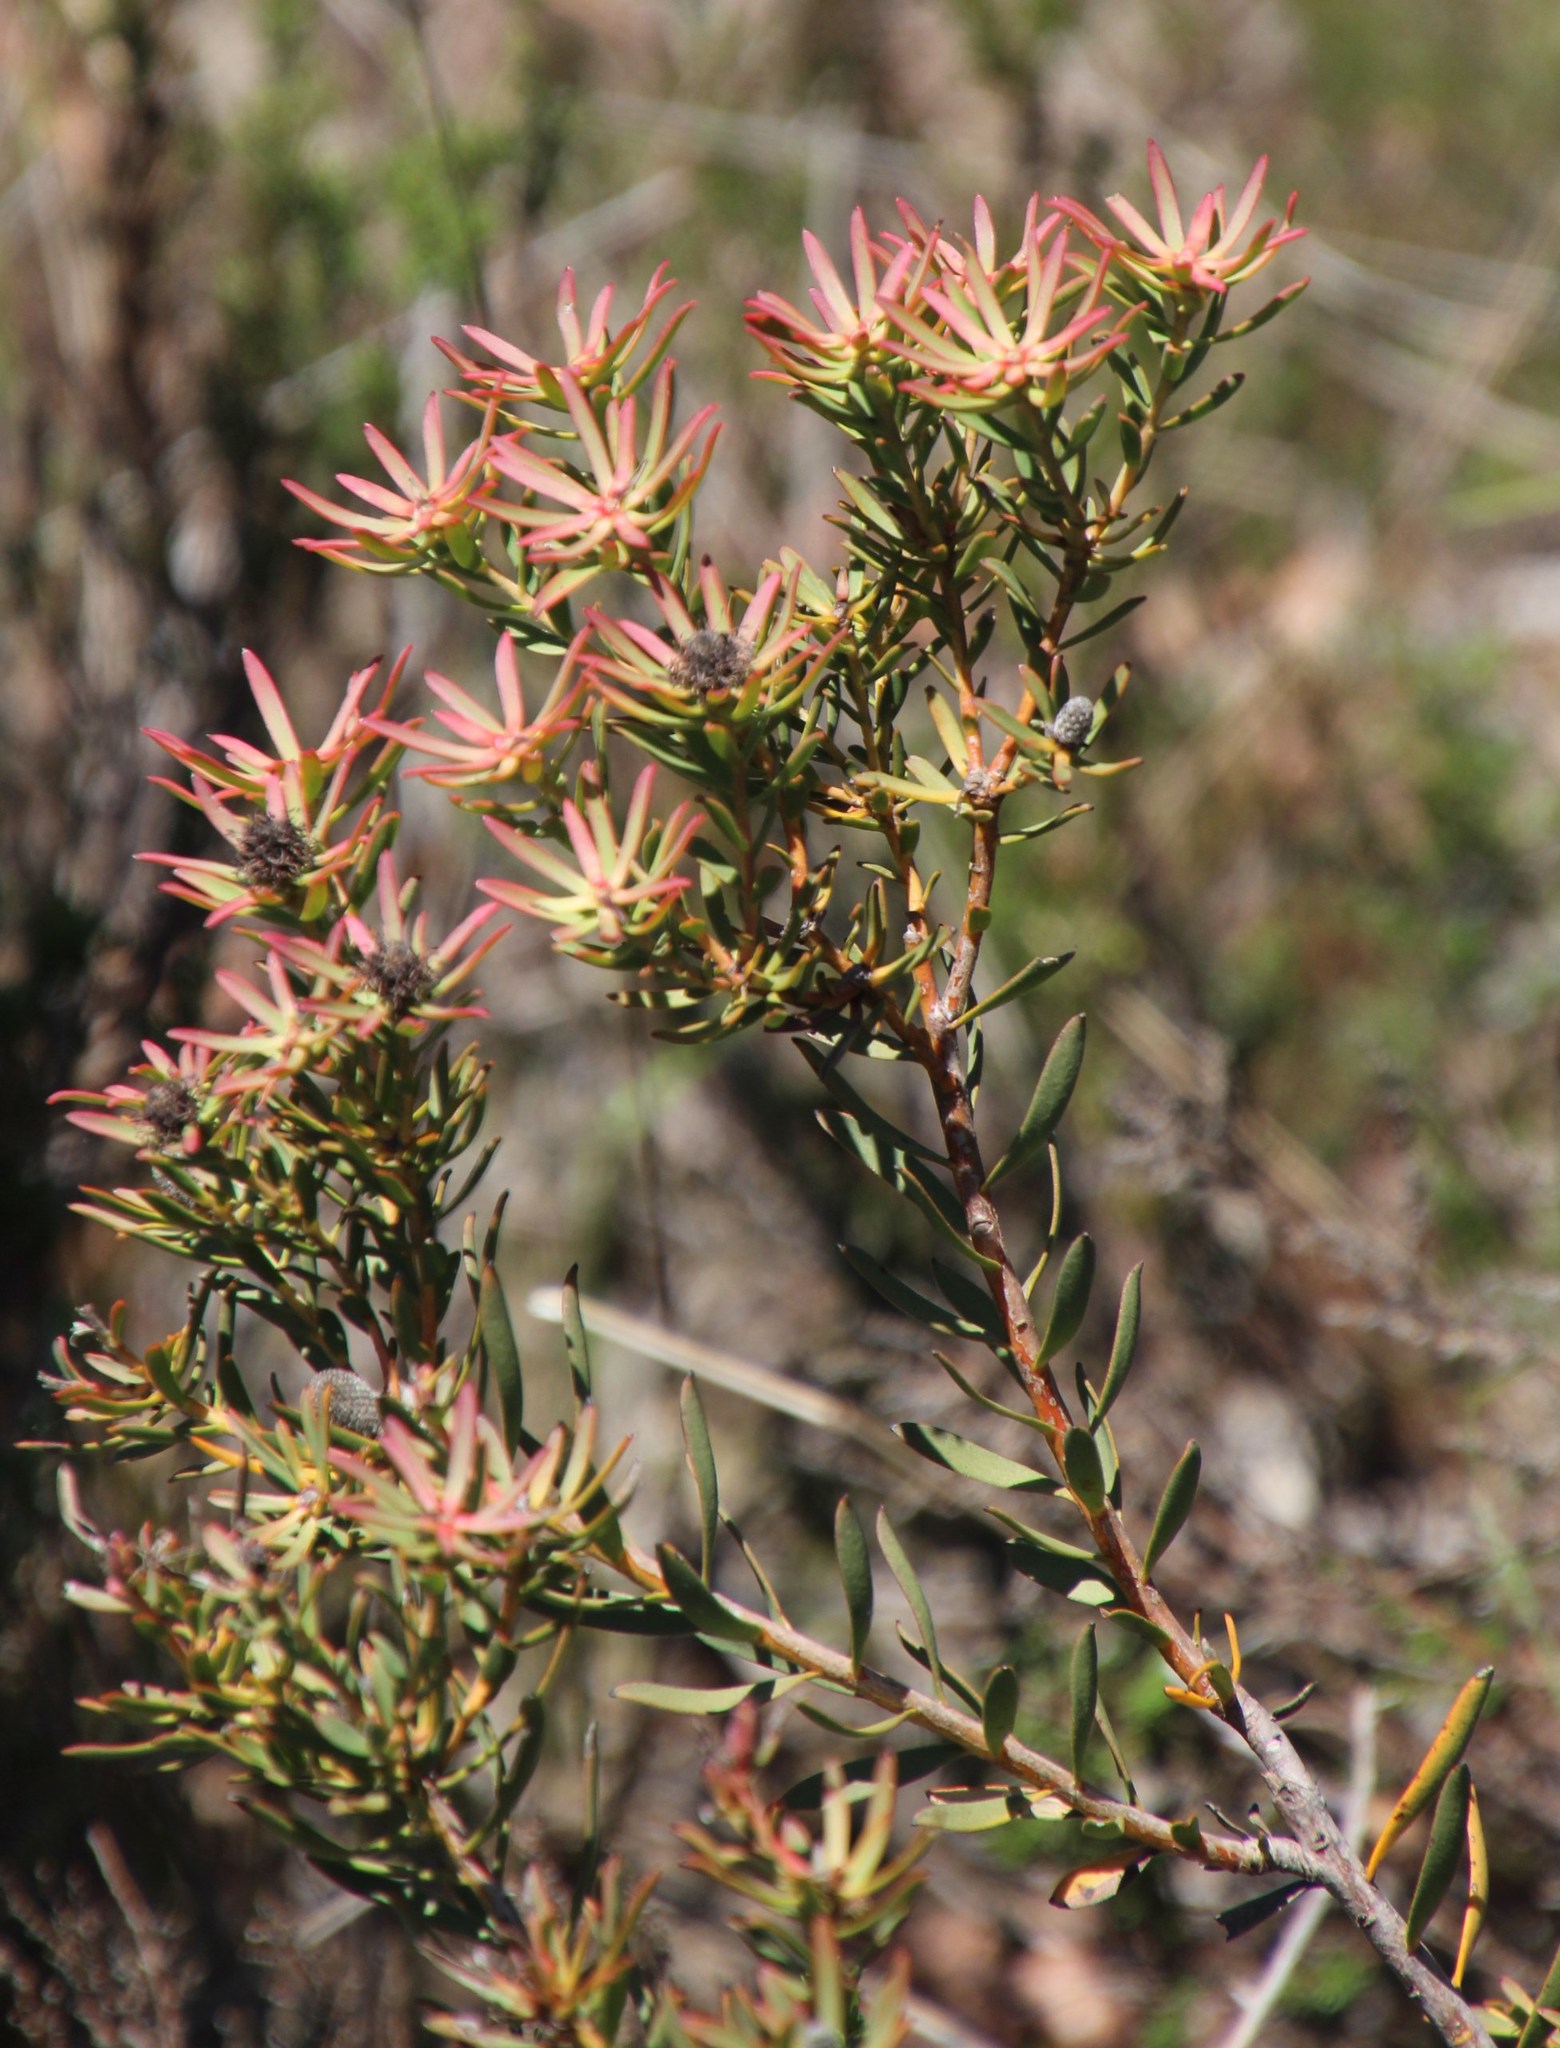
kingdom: Plantae
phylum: Tracheophyta
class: Magnoliopsida
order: Proteales
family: Proteaceae
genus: Leucadendron
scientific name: Leucadendron lanigerum
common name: Shale conebush
